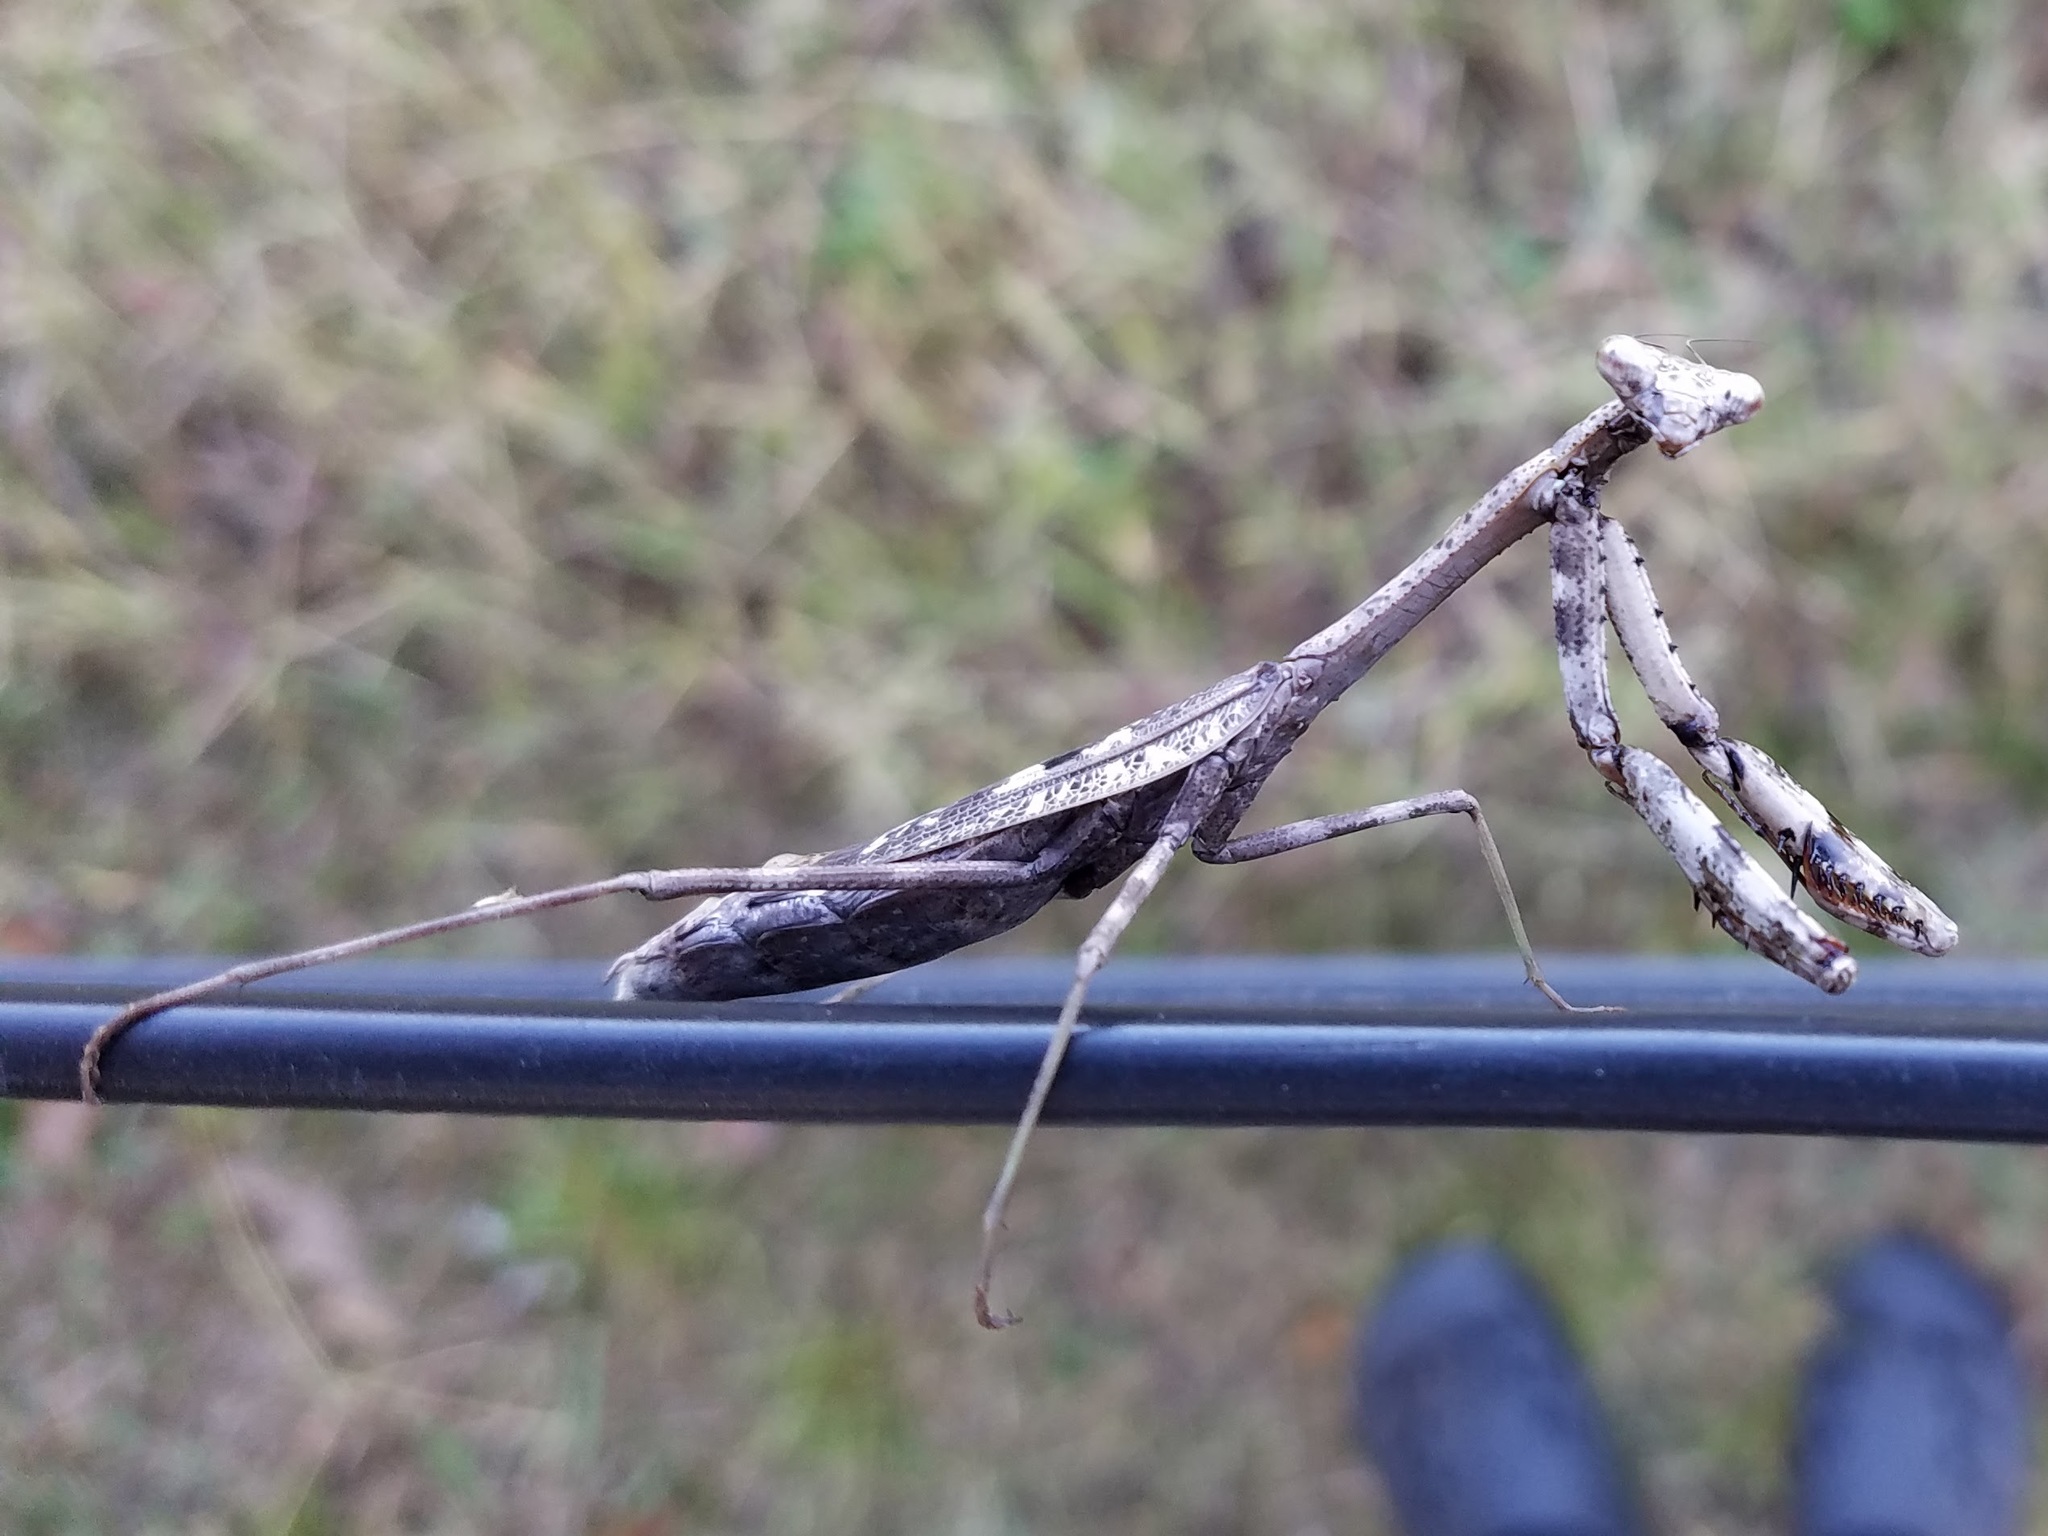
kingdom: Animalia
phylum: Arthropoda
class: Insecta
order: Mantodea
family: Mantidae
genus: Stagmomantis
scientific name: Stagmomantis carolina
